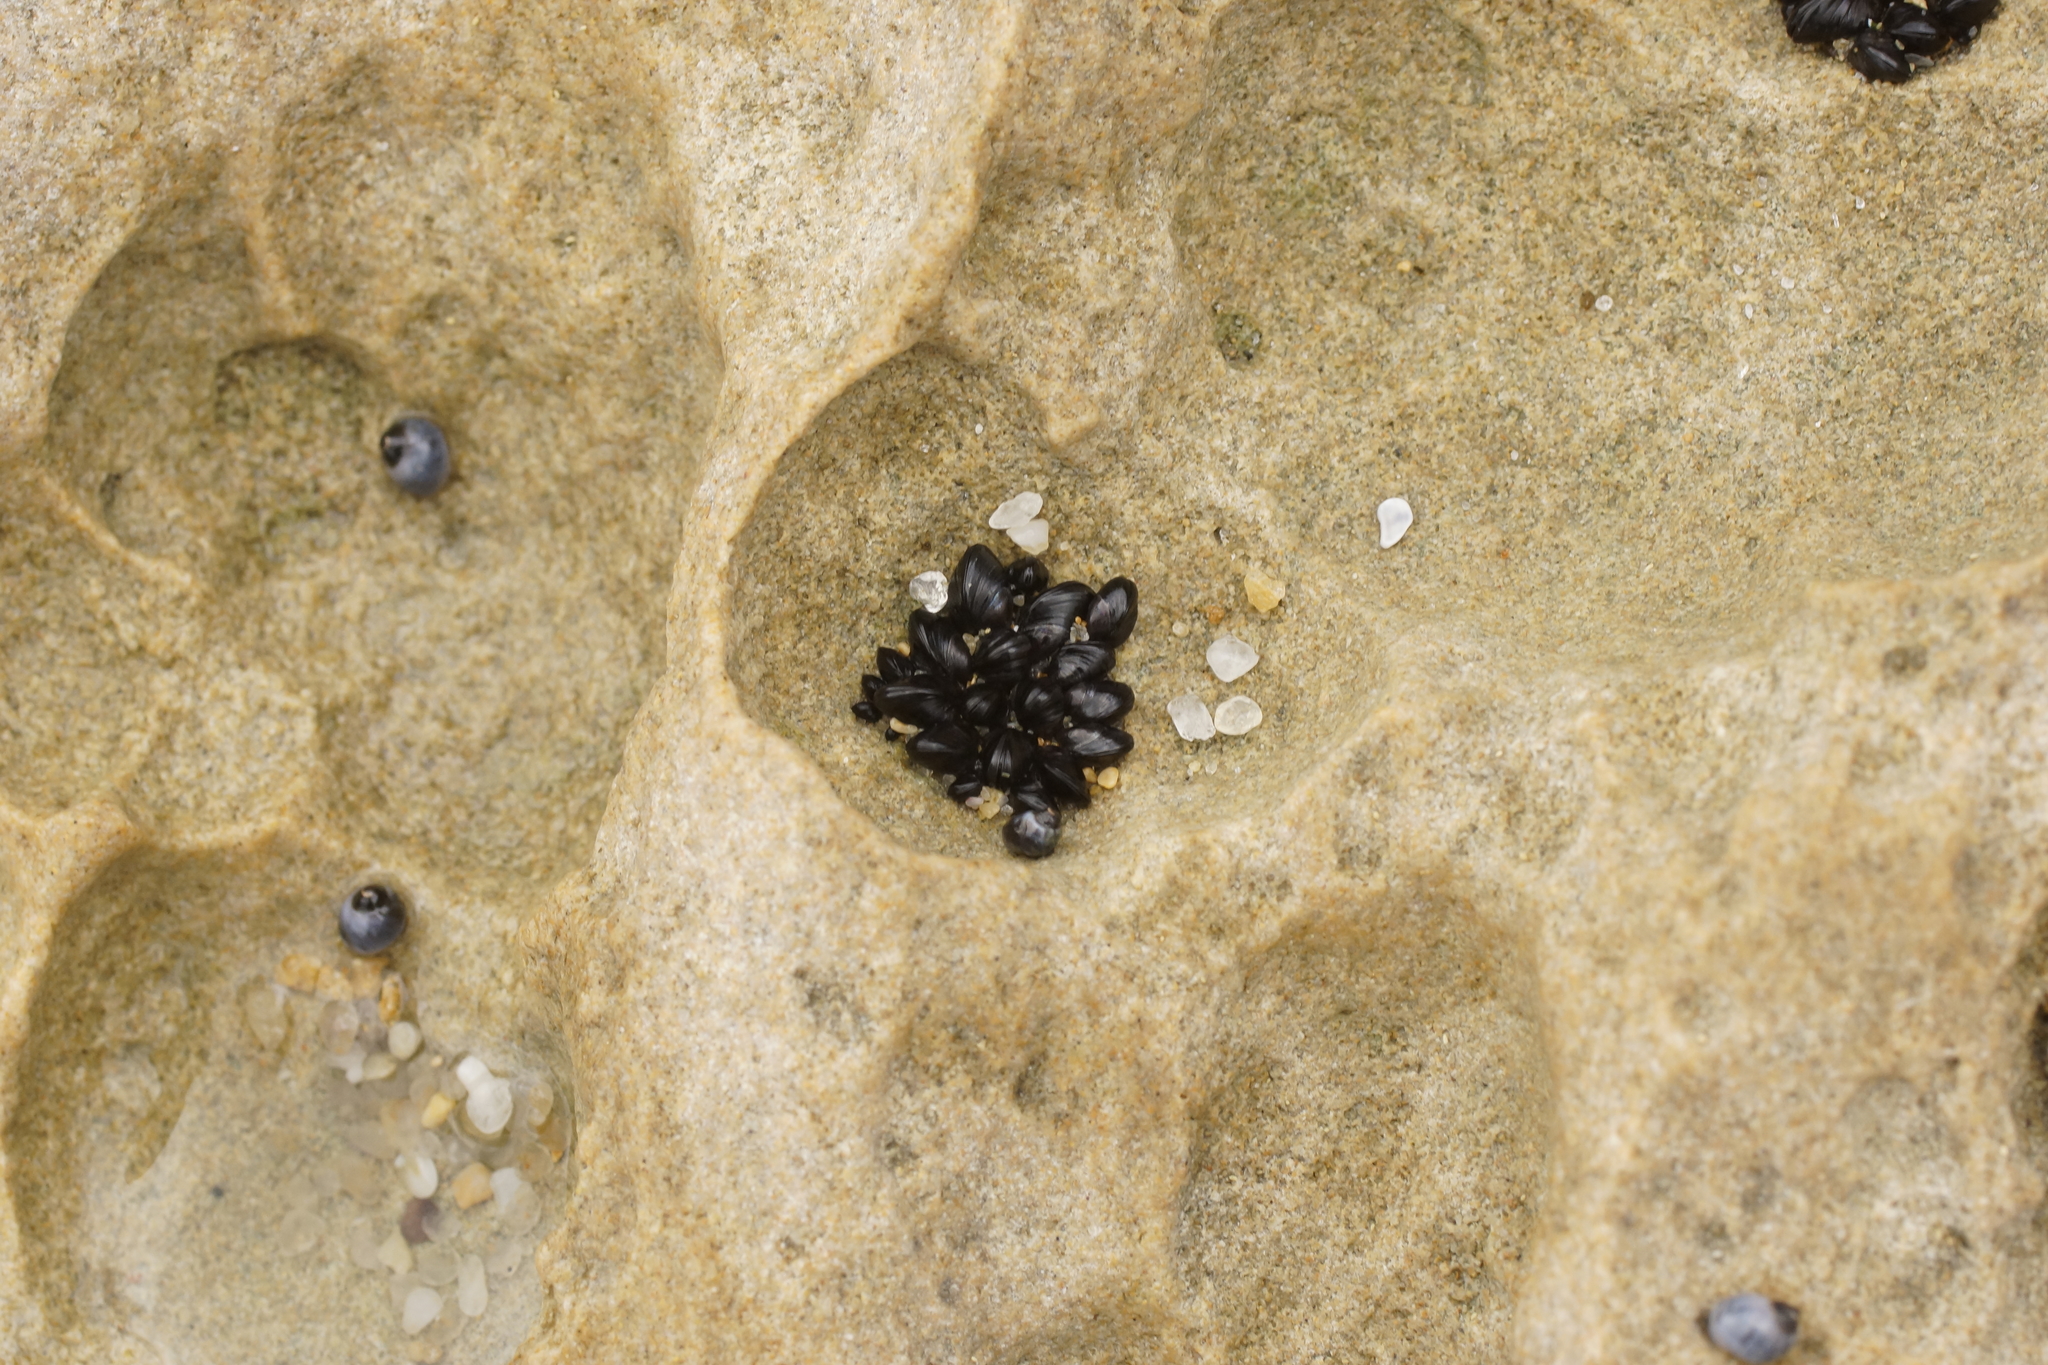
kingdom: Animalia
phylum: Mollusca
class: Bivalvia
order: Mytilida
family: Mytilidae
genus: Xenostrobus
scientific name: Xenostrobus pulex
